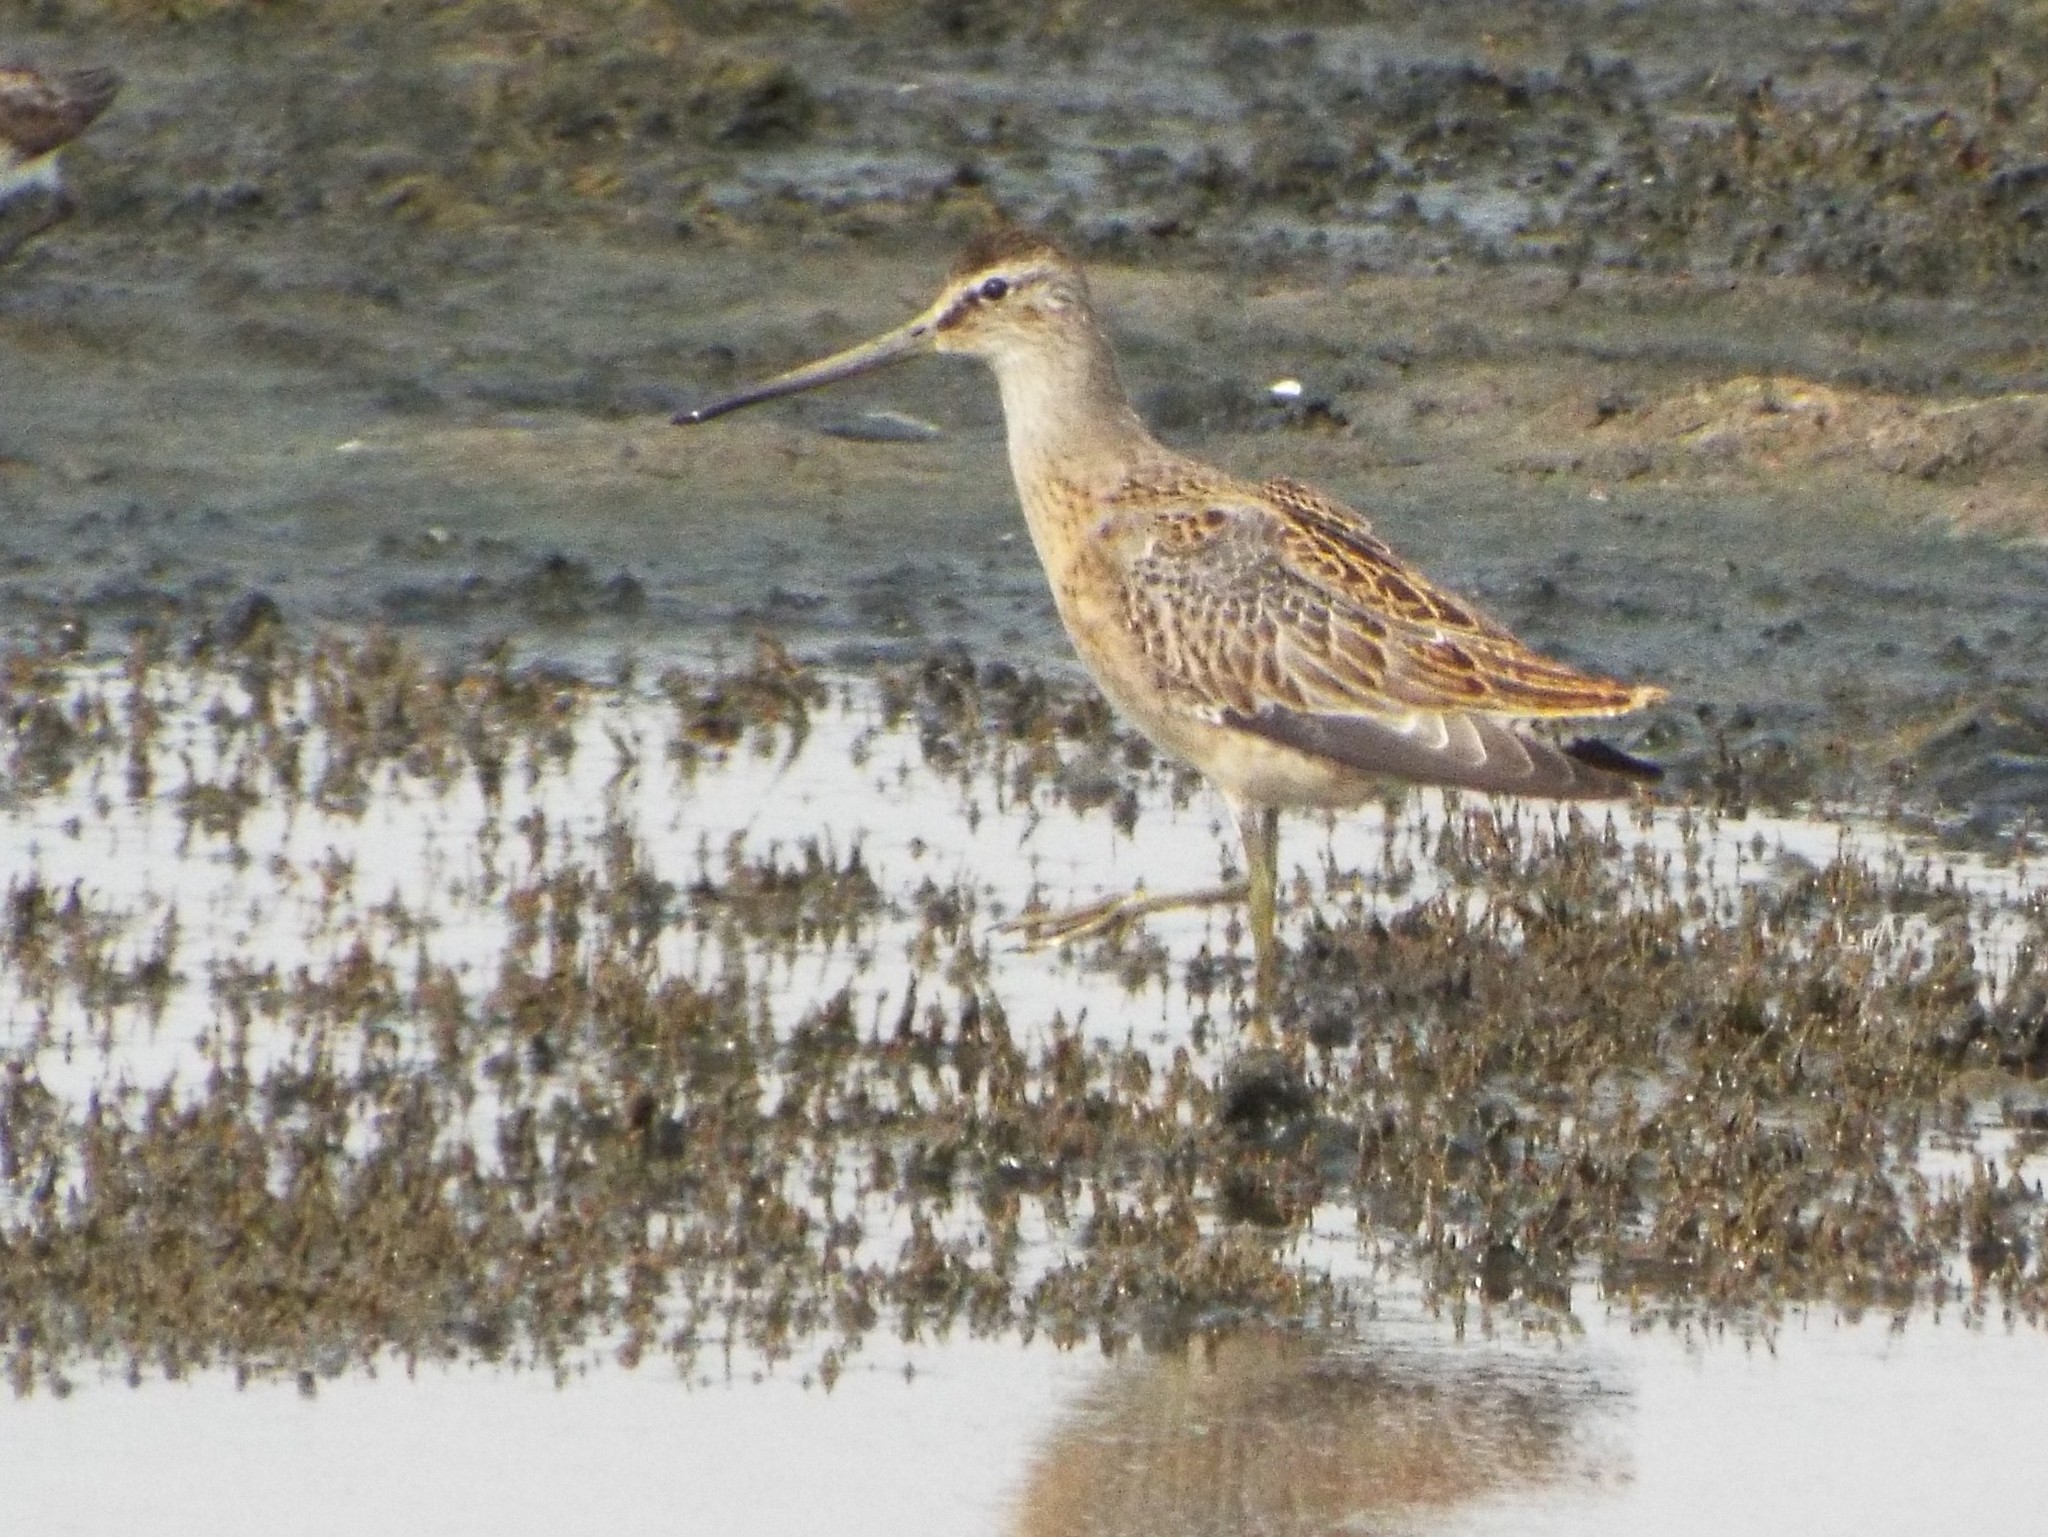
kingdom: Animalia
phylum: Chordata
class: Aves
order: Charadriiformes
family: Scolopacidae
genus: Limnodromus
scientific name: Limnodromus griseus
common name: Short-billed dowitcher
